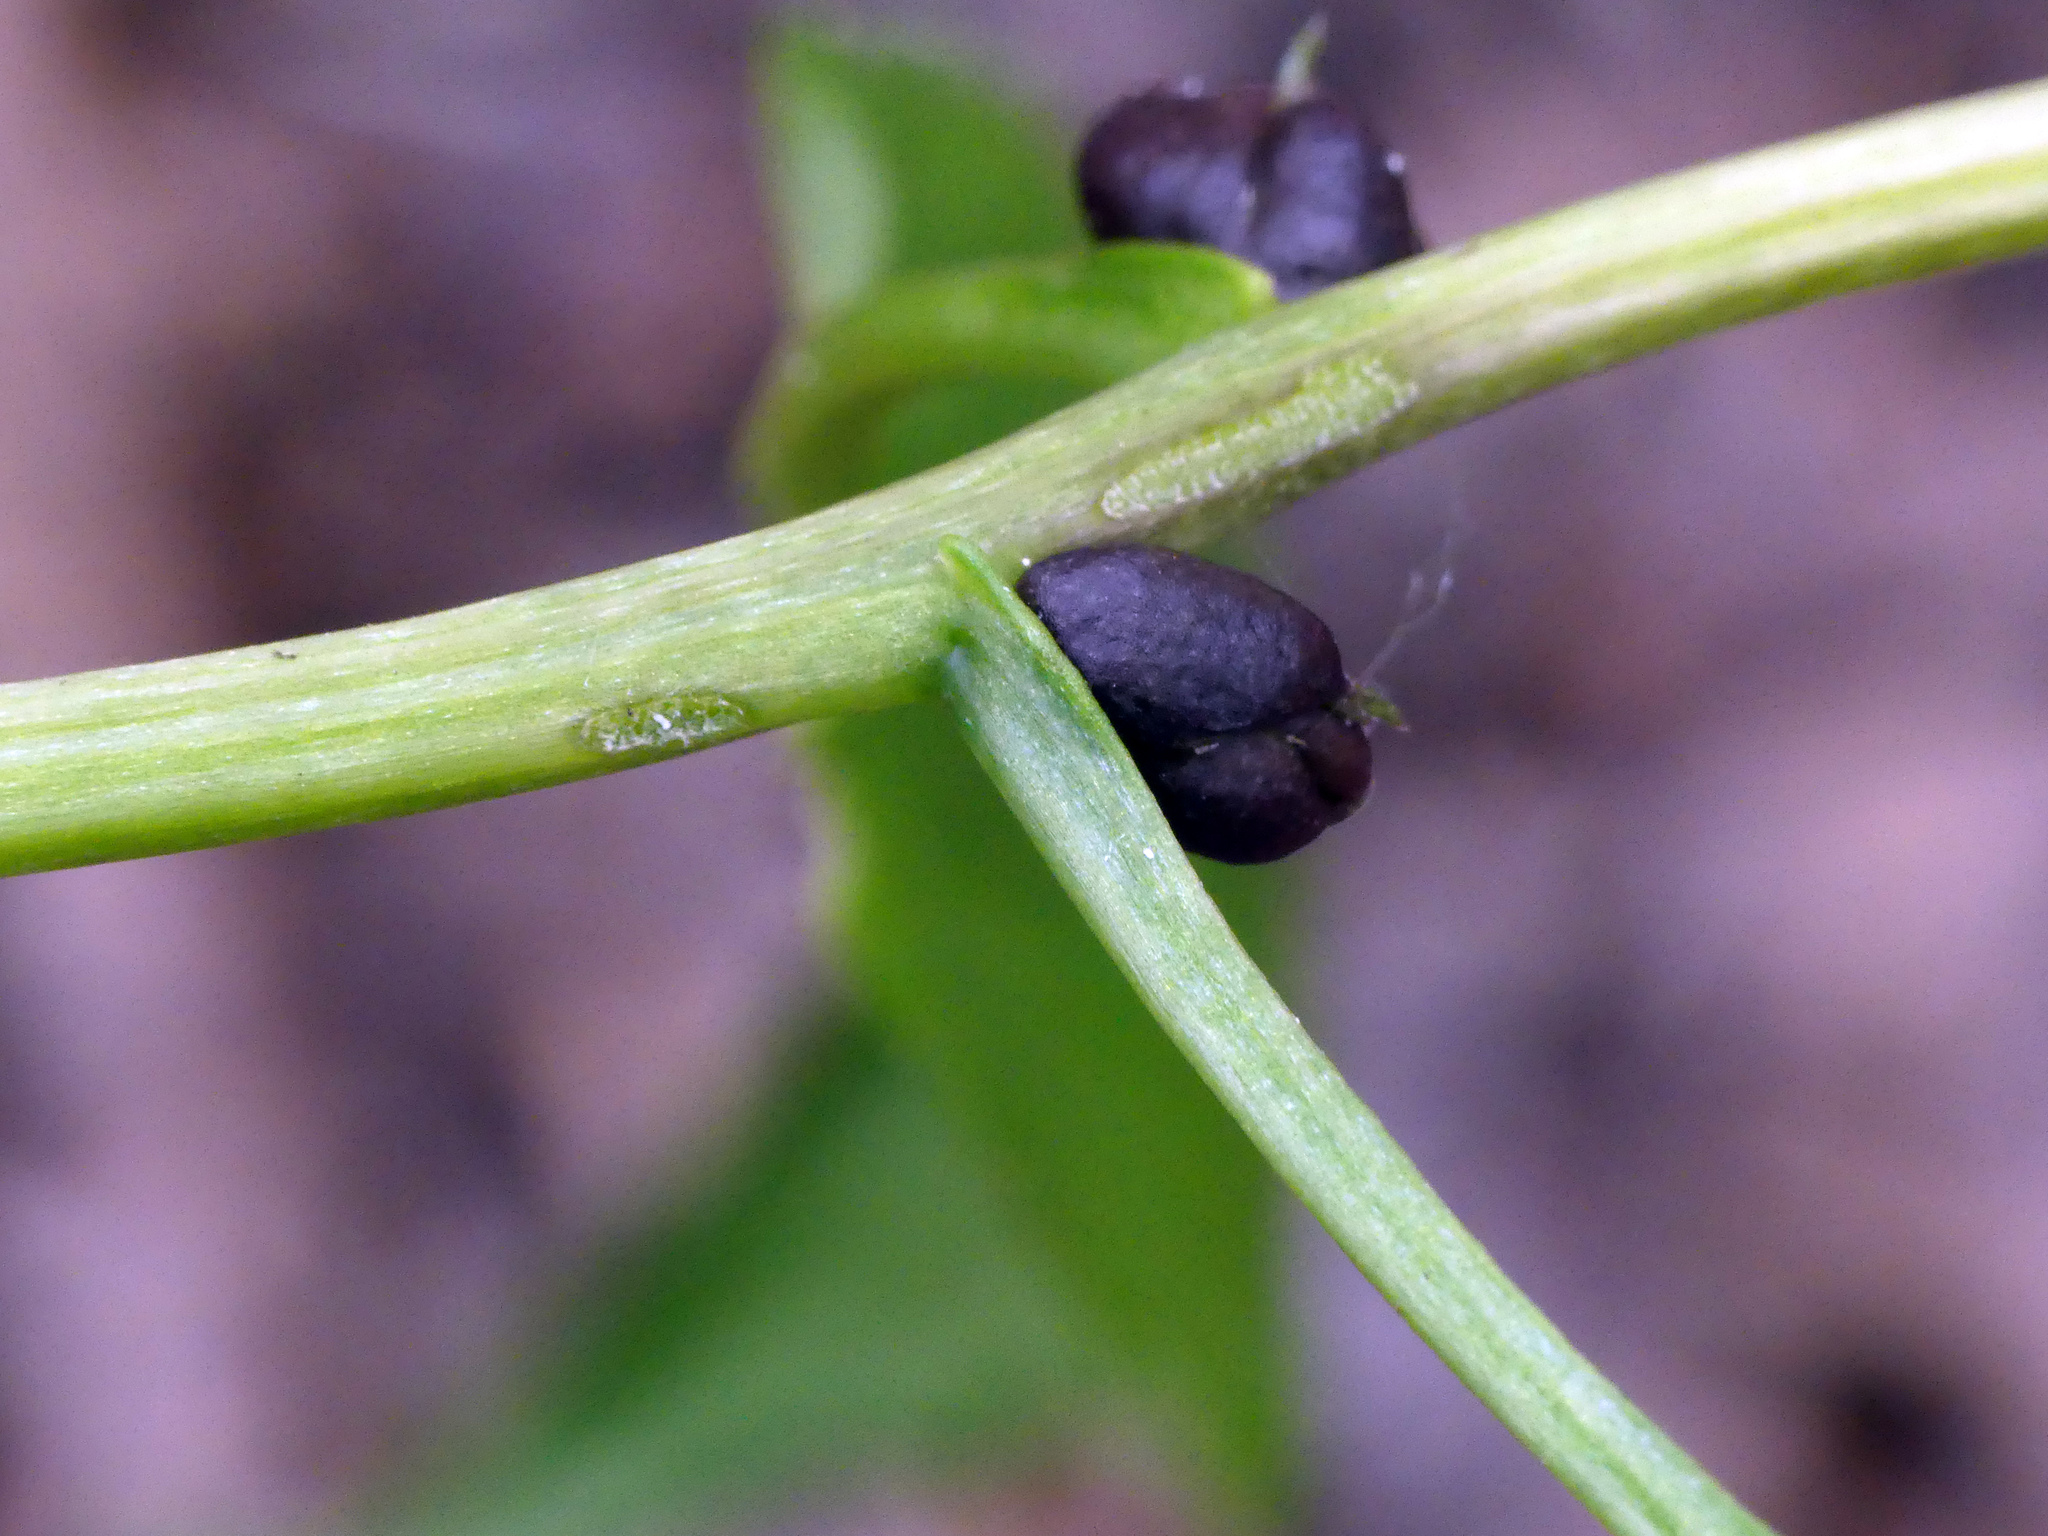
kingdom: Plantae
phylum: Tracheophyta
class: Magnoliopsida
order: Brassicales
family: Brassicaceae
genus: Cardamine
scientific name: Cardamine bulbifera
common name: Coralroot bittercress
